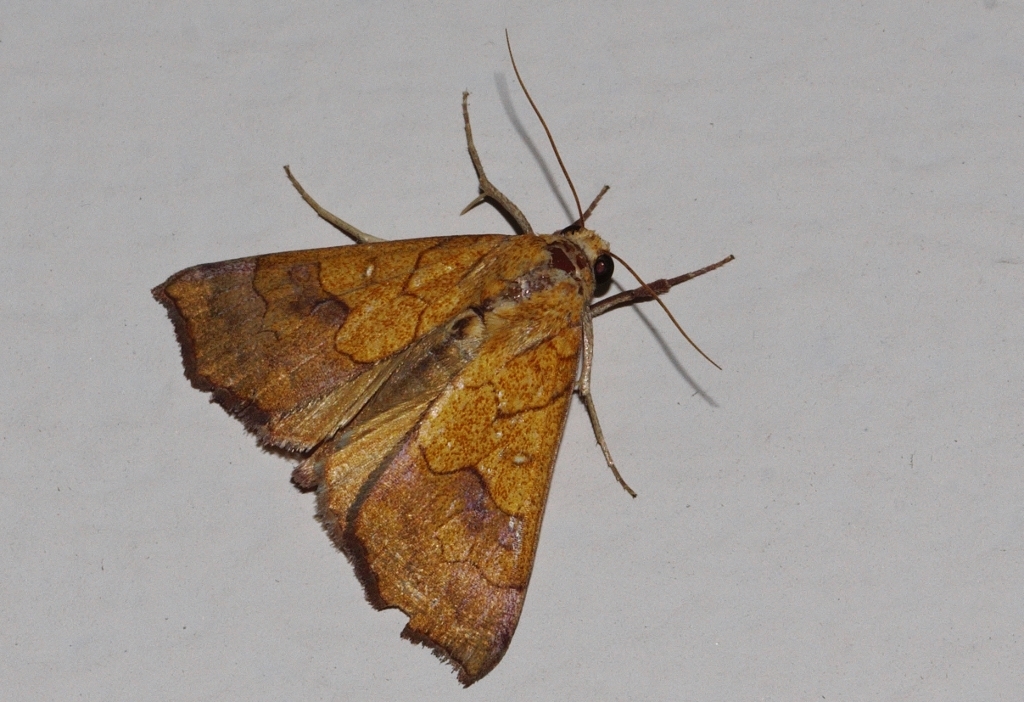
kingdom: Animalia
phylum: Arthropoda
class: Insecta
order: Lepidoptera
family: Erebidae
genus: Anomis
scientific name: Anomis flava
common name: Moth
